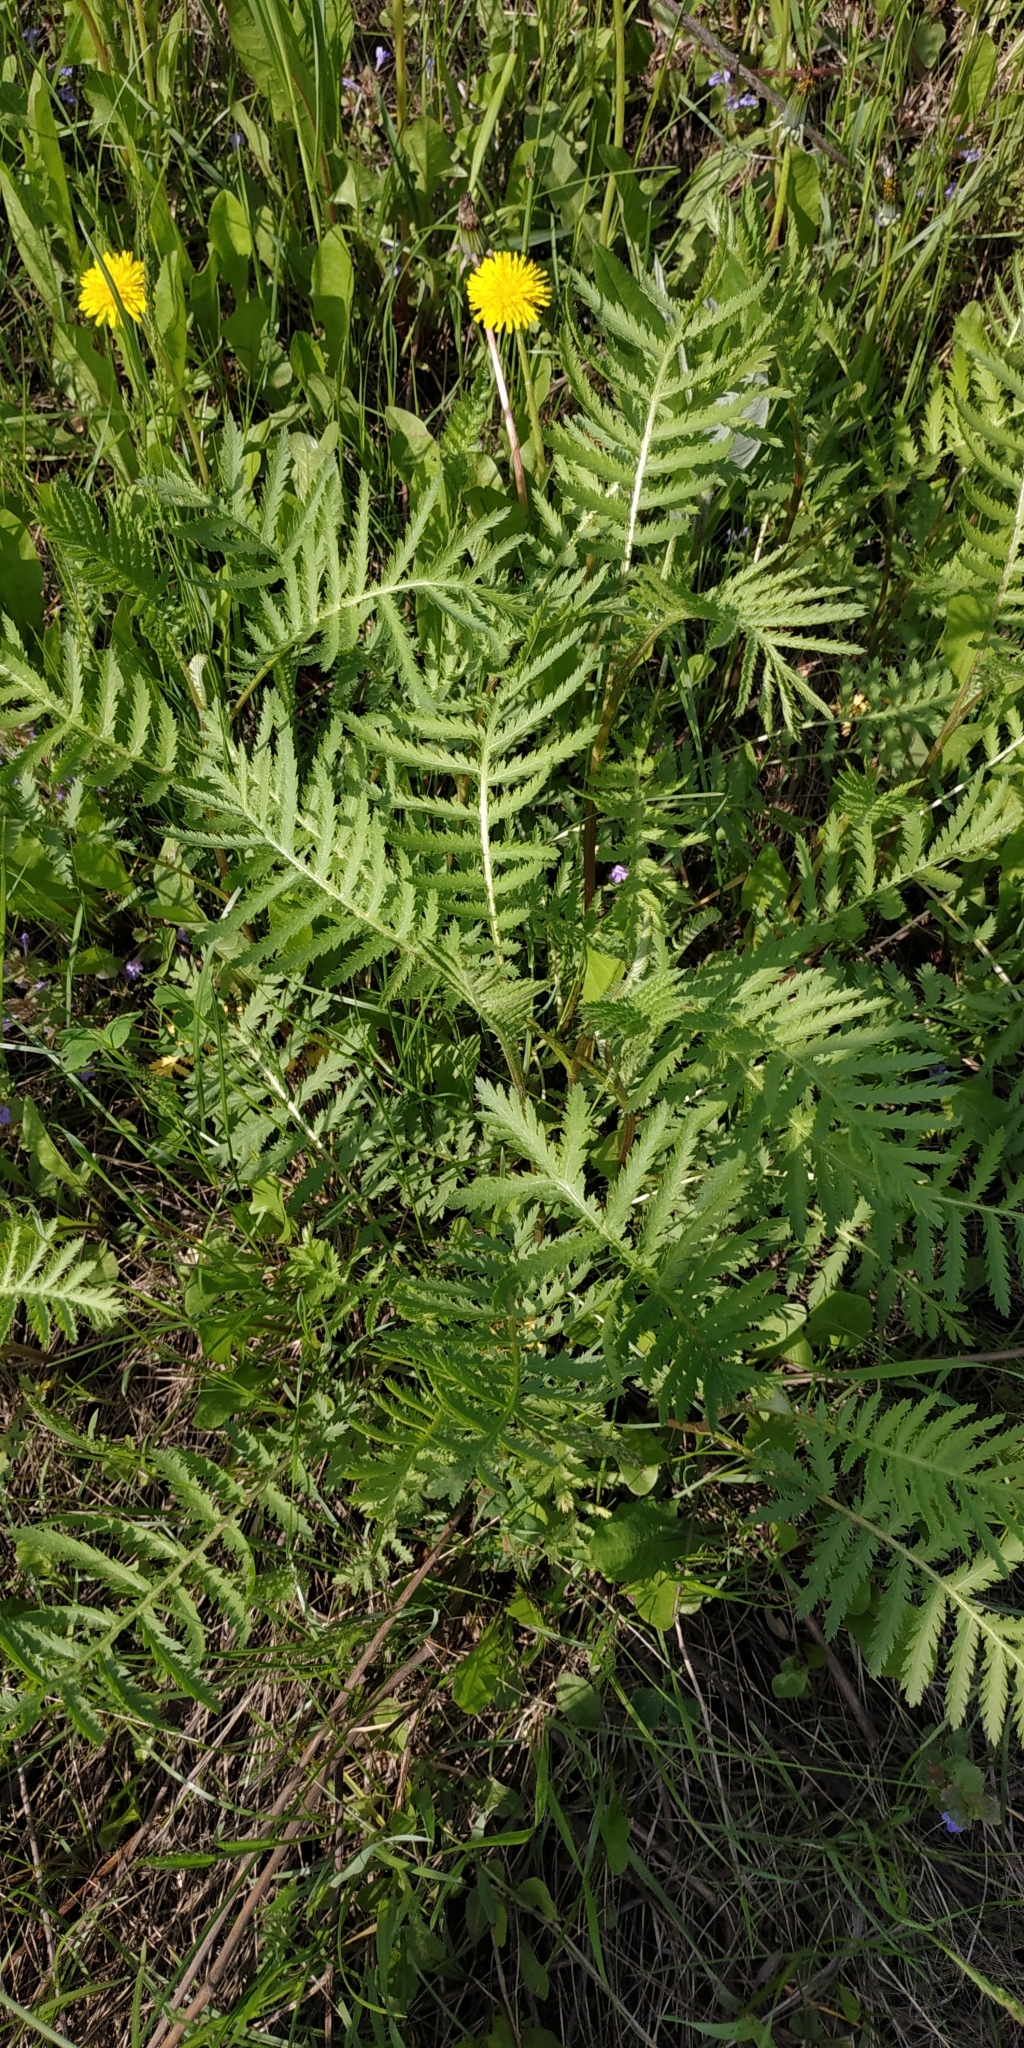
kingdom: Plantae
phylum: Tracheophyta
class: Magnoliopsida
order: Asterales
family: Asteraceae
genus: Tanacetum
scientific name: Tanacetum vulgare
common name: Common tansy
